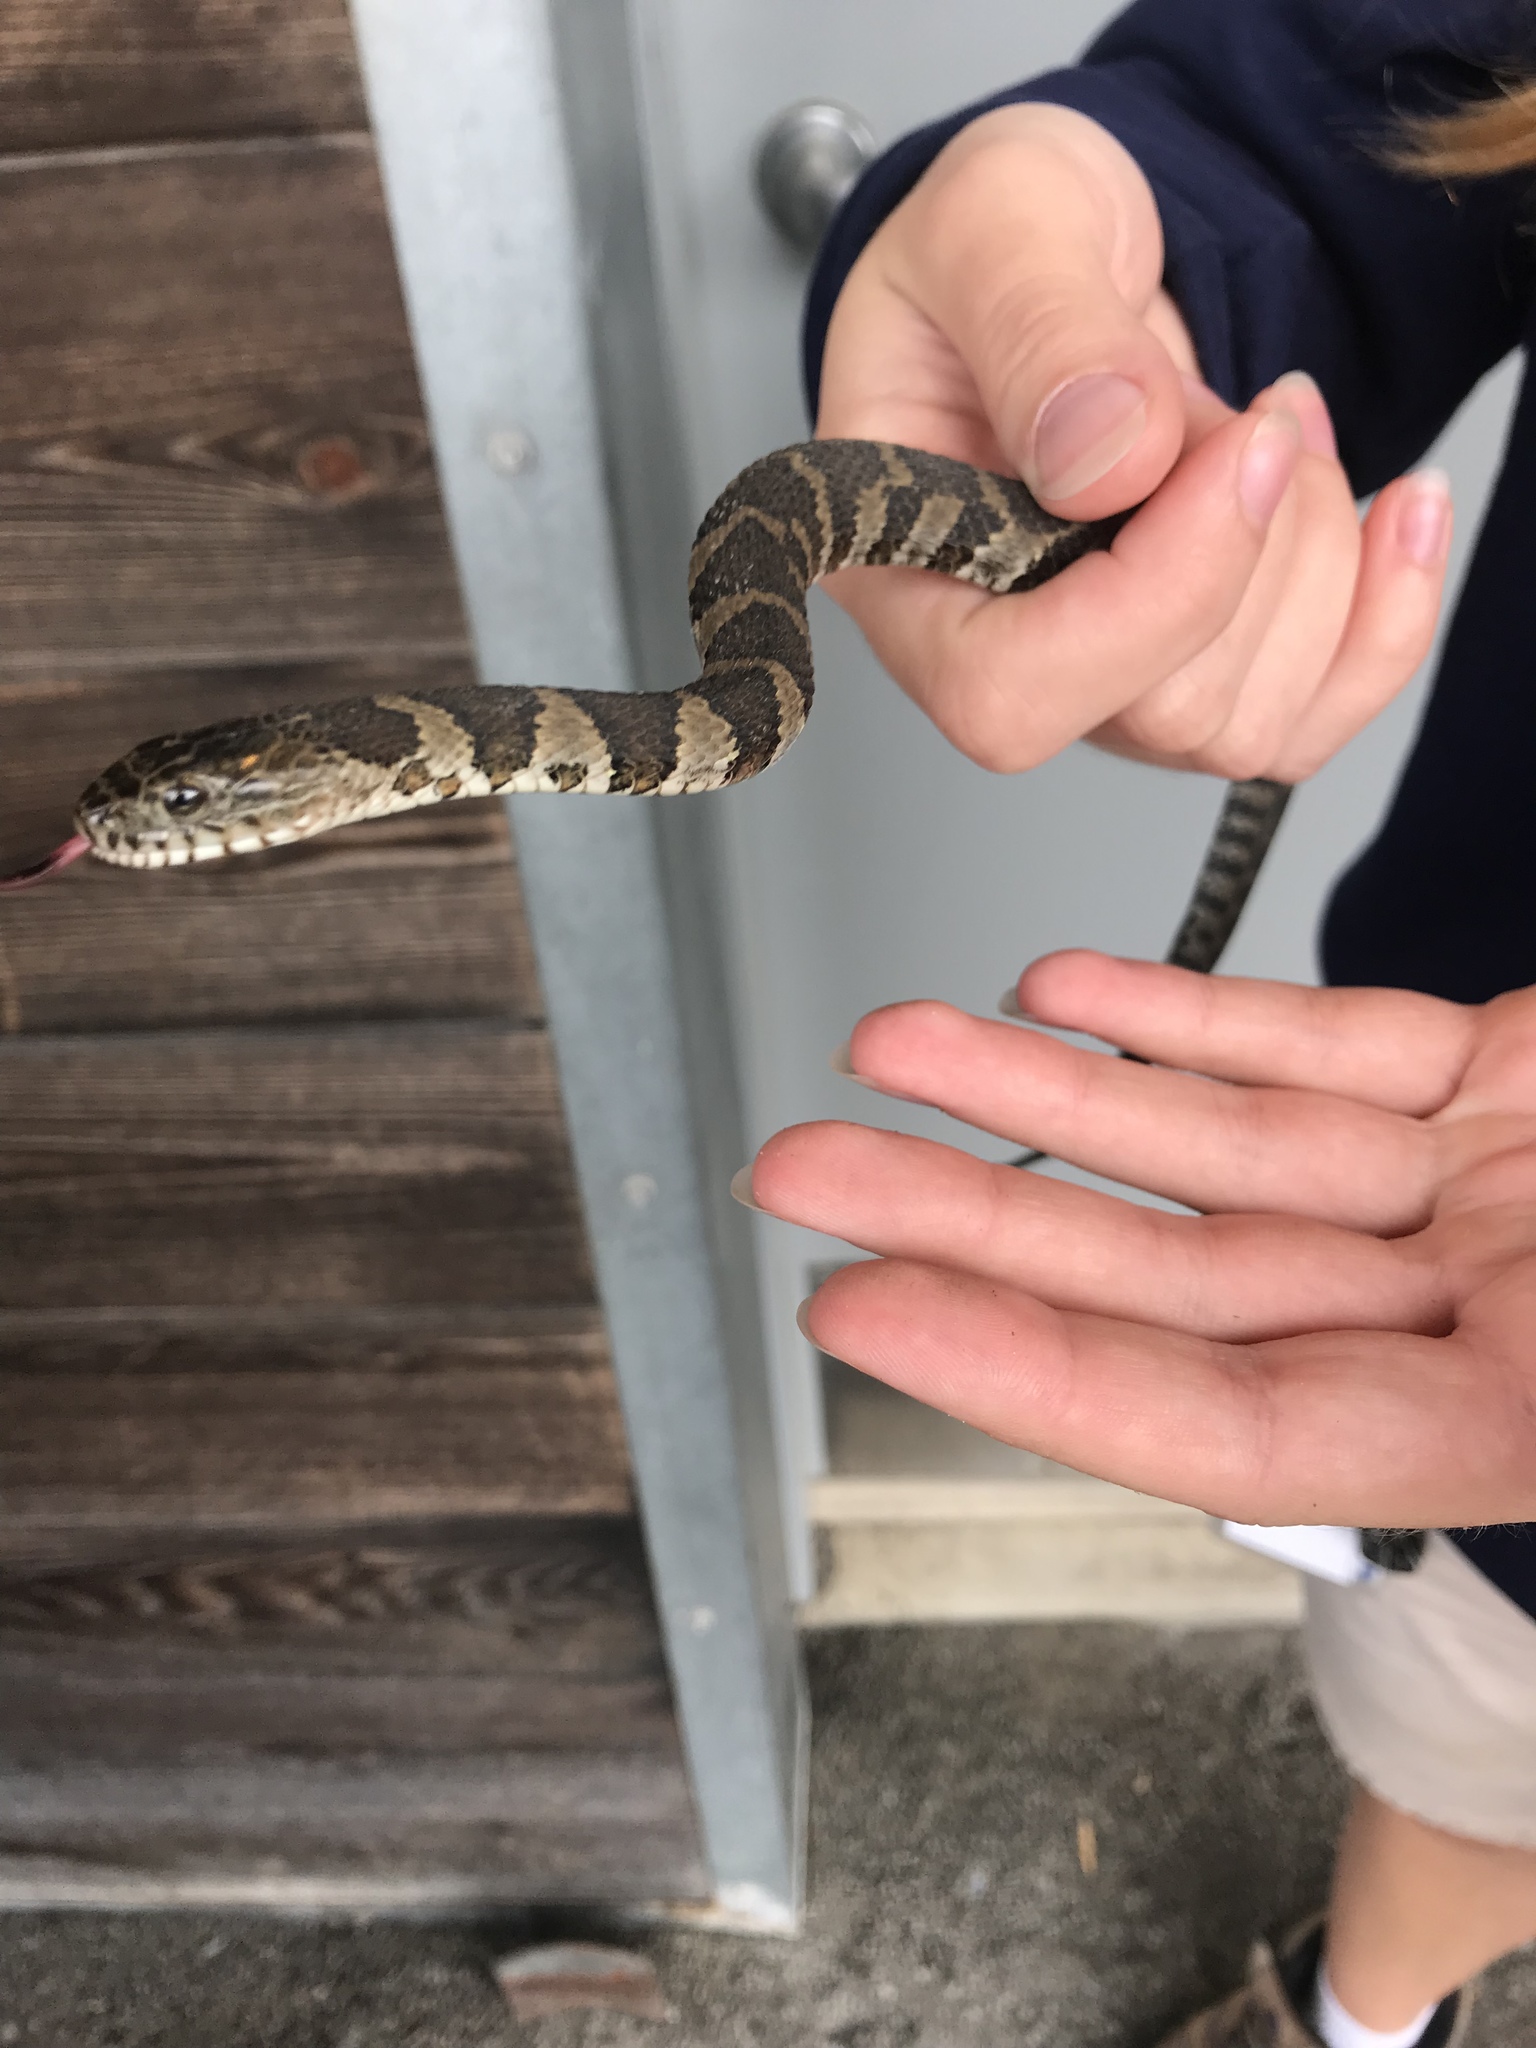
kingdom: Animalia
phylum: Chordata
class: Squamata
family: Colubridae
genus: Nerodia
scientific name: Nerodia sipedon
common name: Northern water snake
